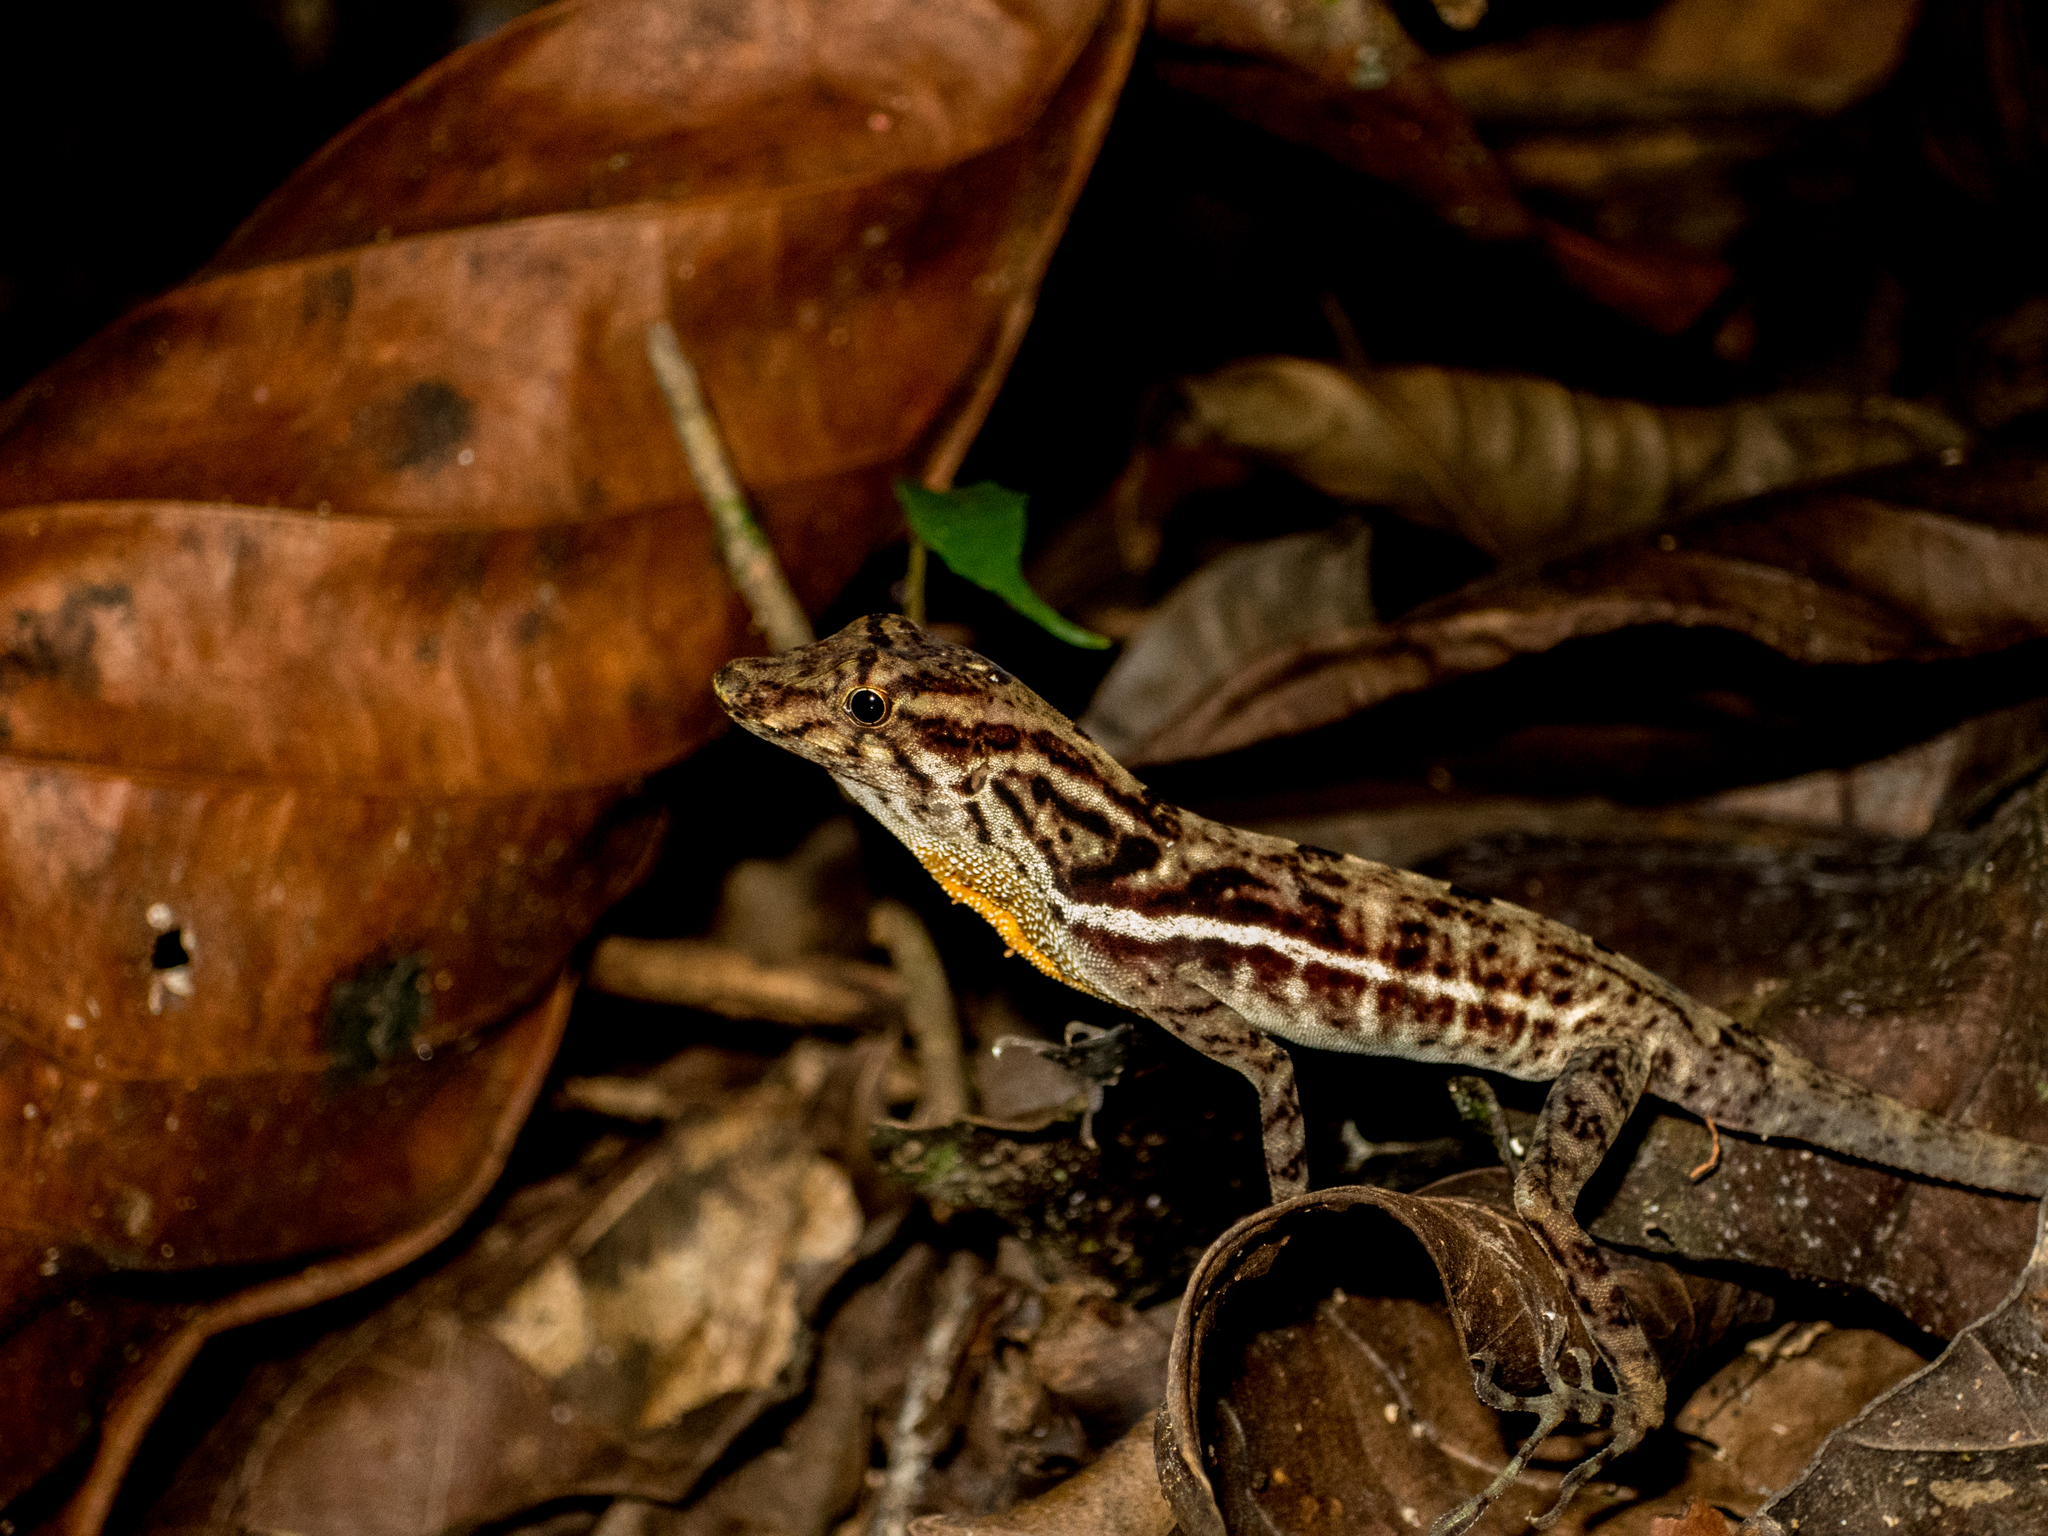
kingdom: Animalia
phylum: Chordata
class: Squamata
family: Dactyloidae
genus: Anolis
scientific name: Anolis polylepis
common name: Many-scaled anole
